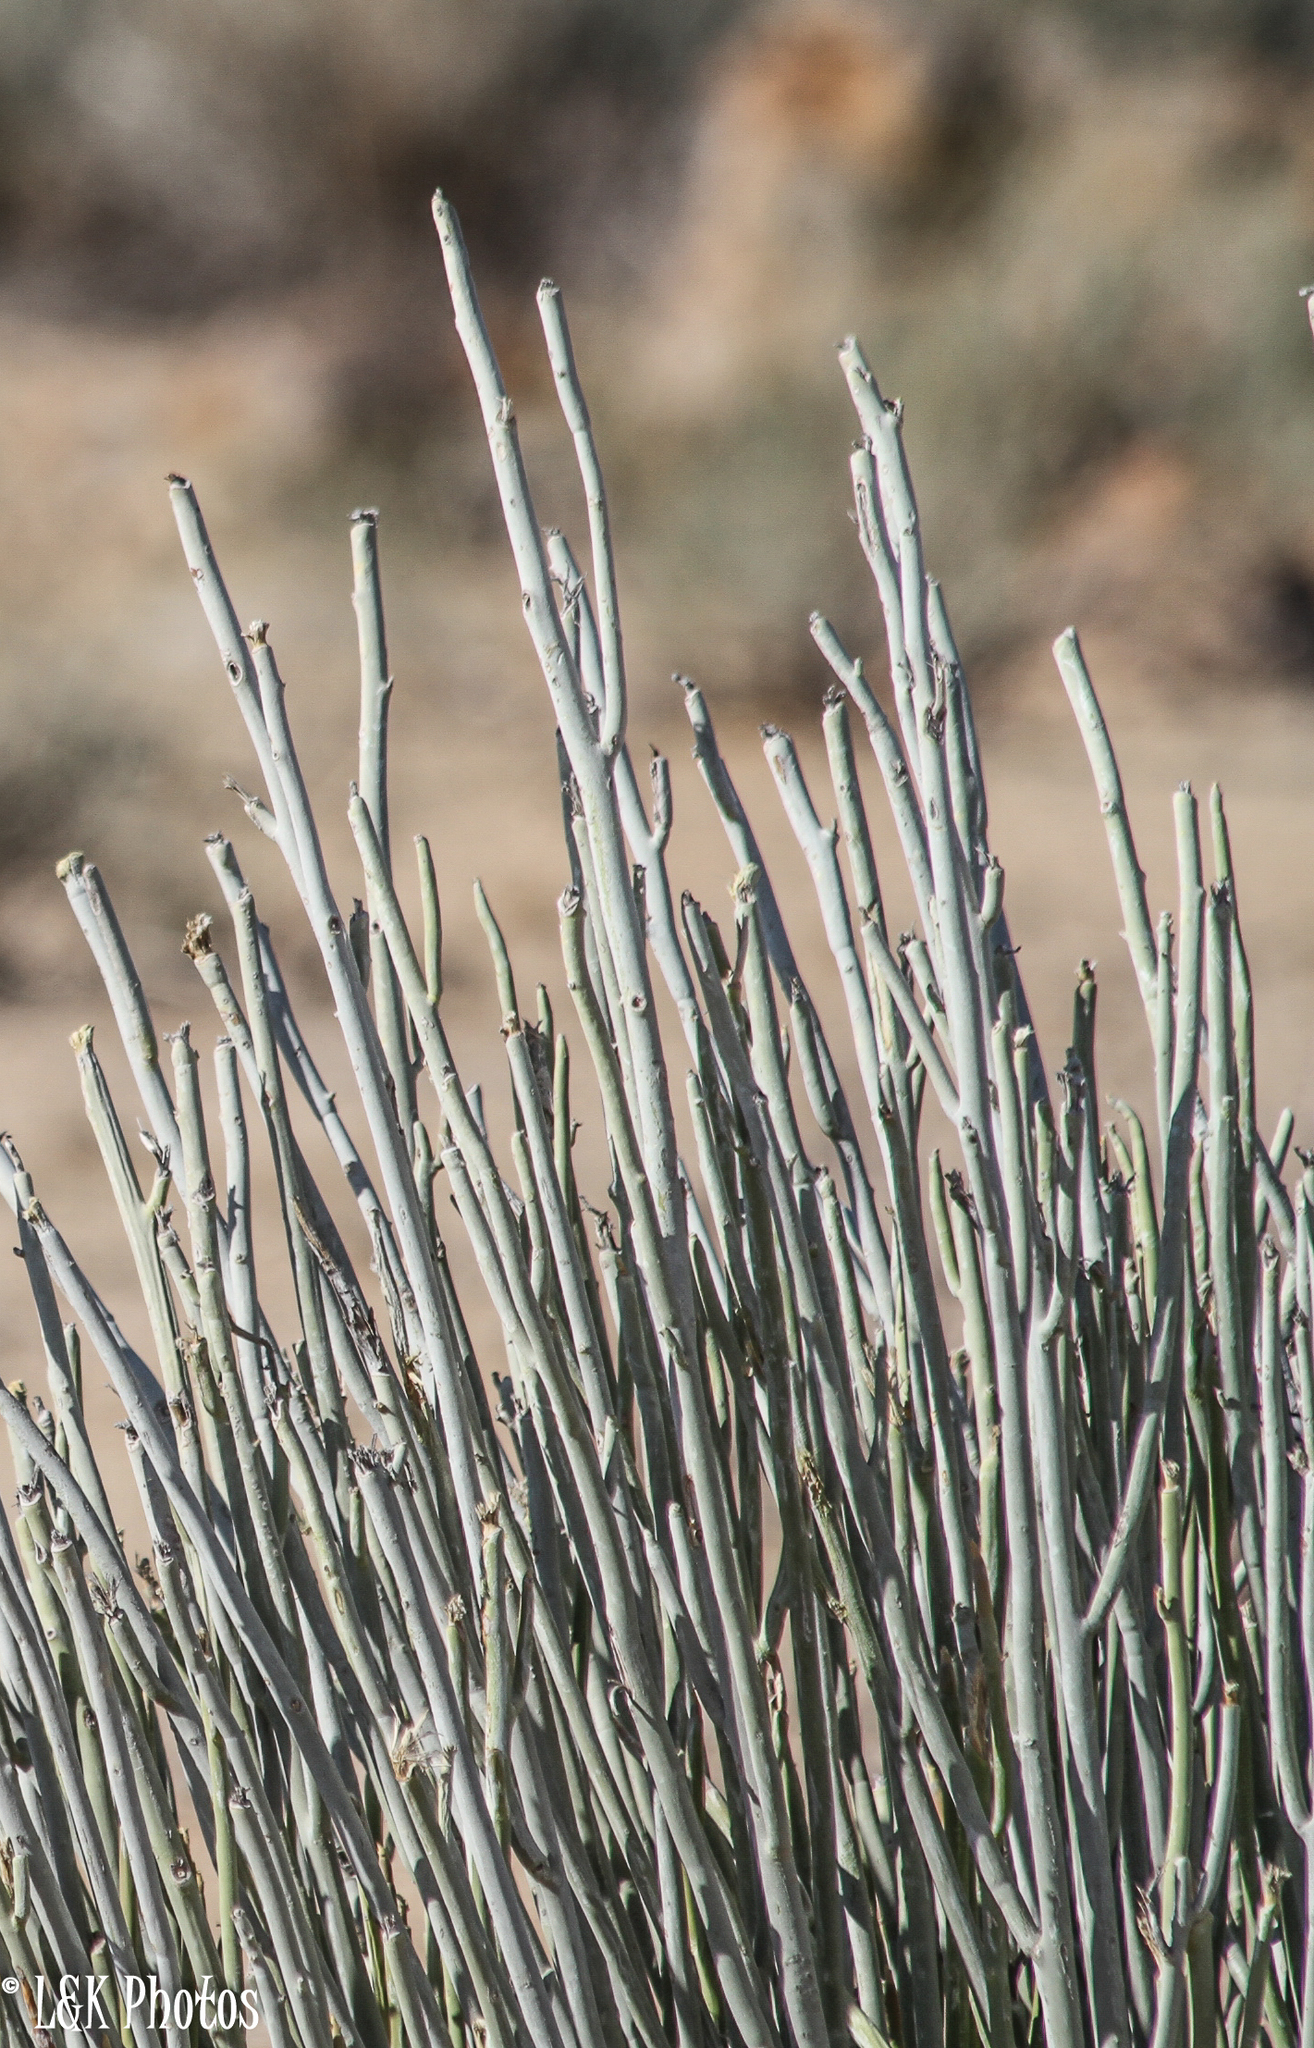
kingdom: Plantae
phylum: Tracheophyta
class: Magnoliopsida
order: Malpighiales
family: Euphorbiaceae
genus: Euphorbia
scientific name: Euphorbia gregaria
